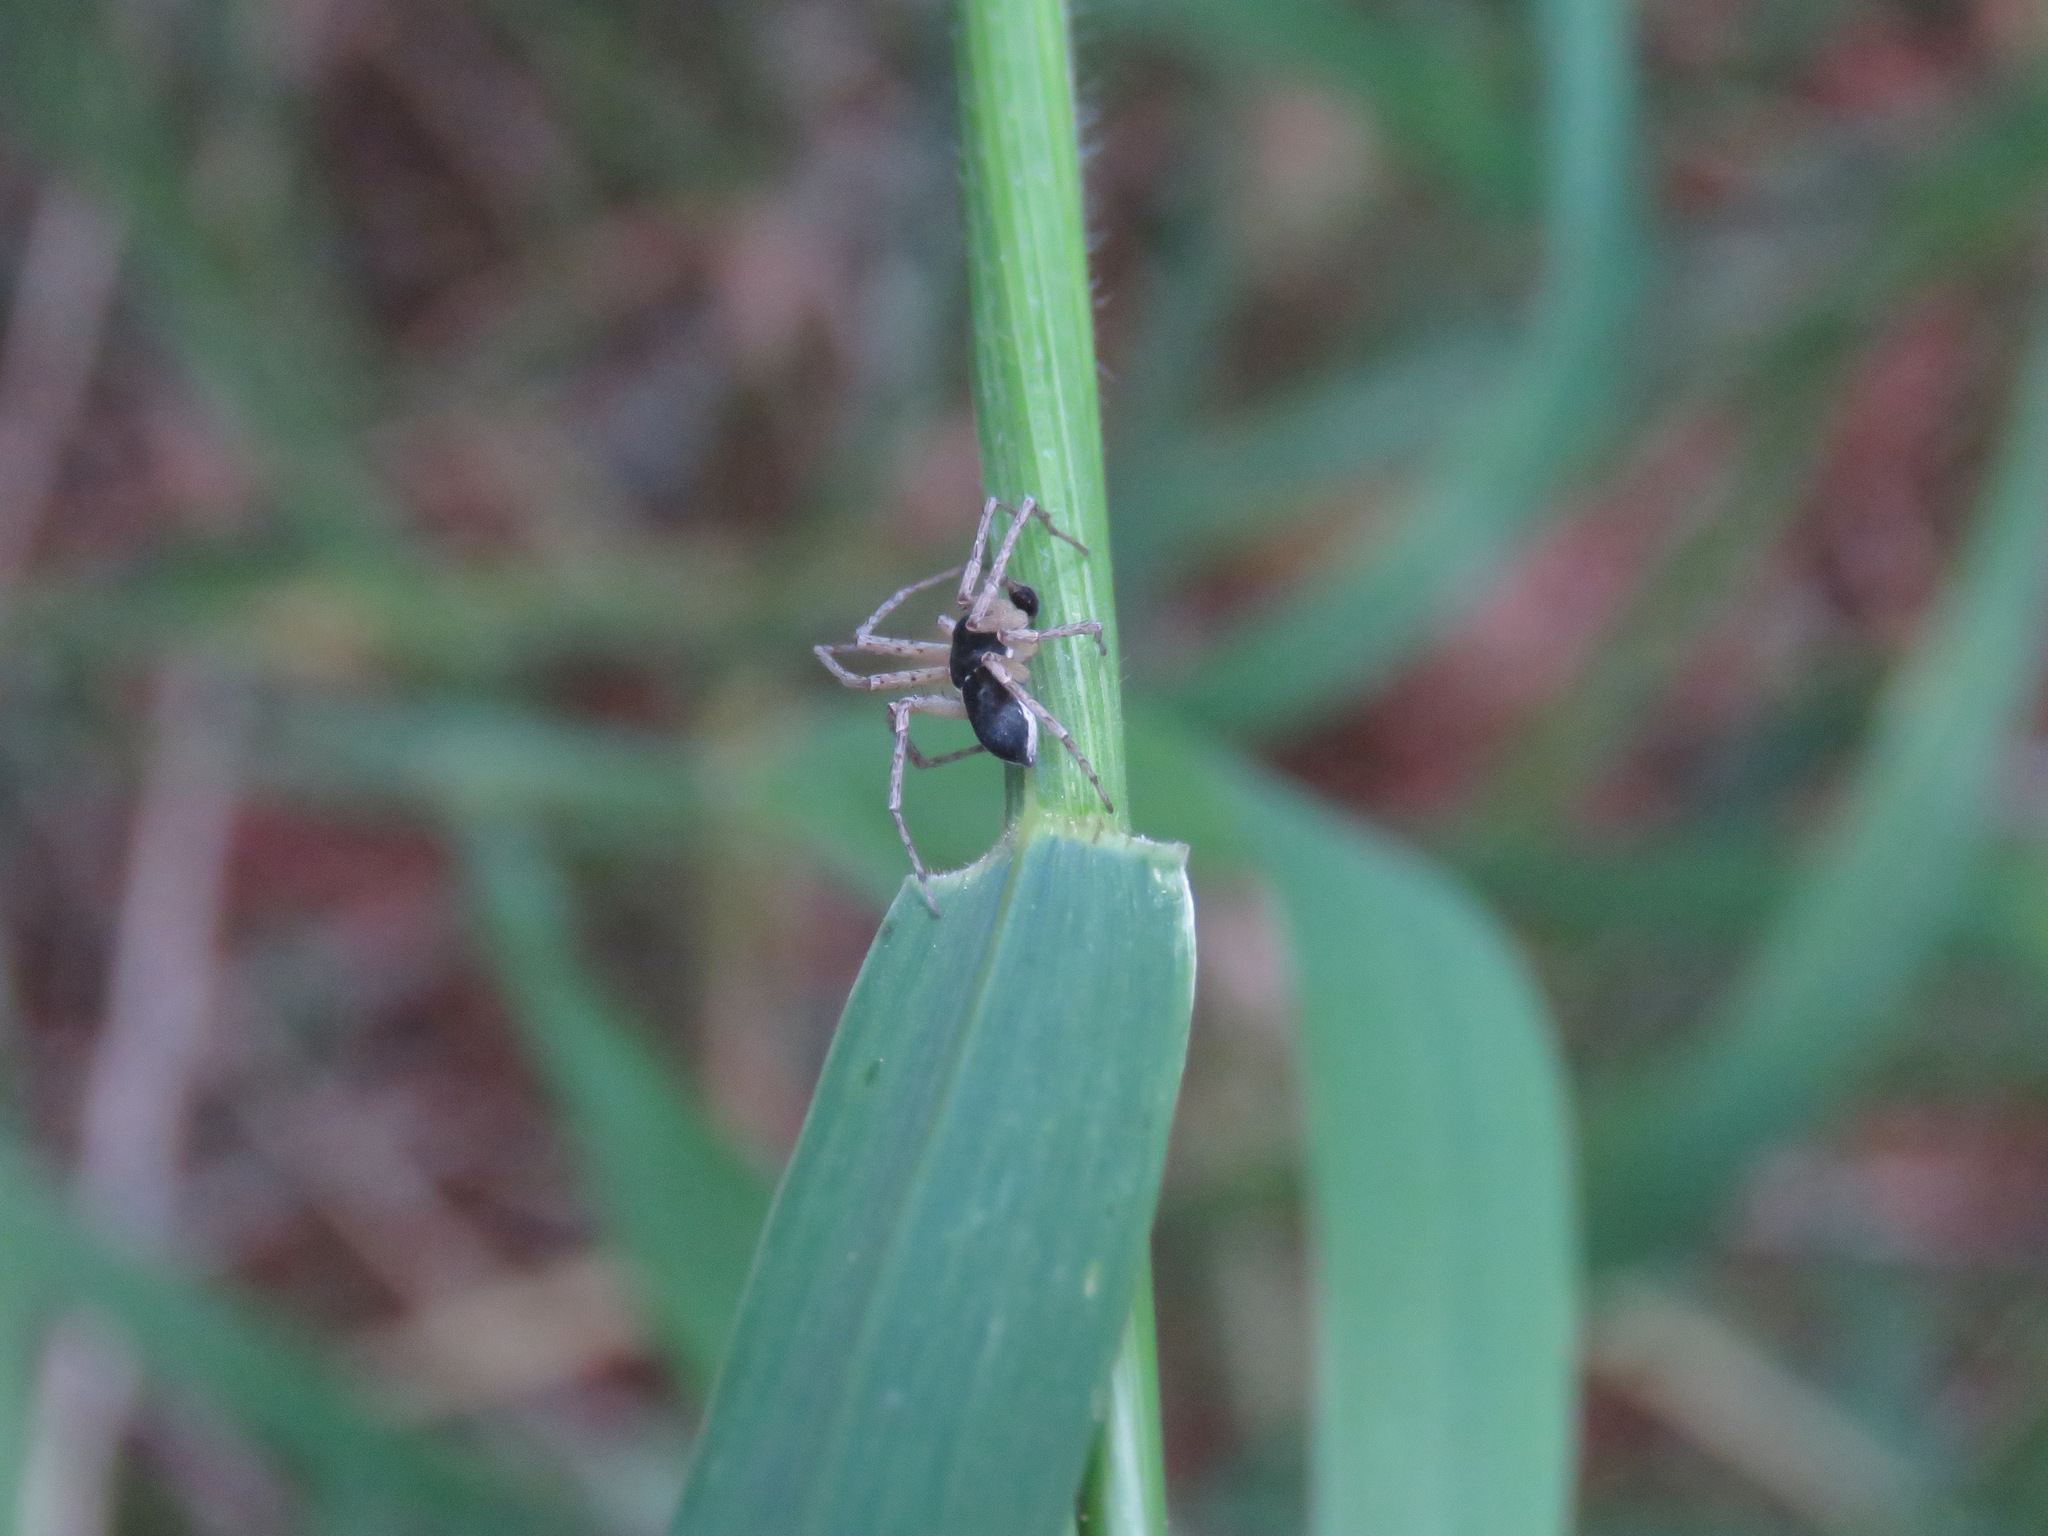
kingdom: Animalia
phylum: Arthropoda
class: Arachnida
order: Araneae
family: Philodromidae
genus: Philodromus
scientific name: Philodromus dispar
